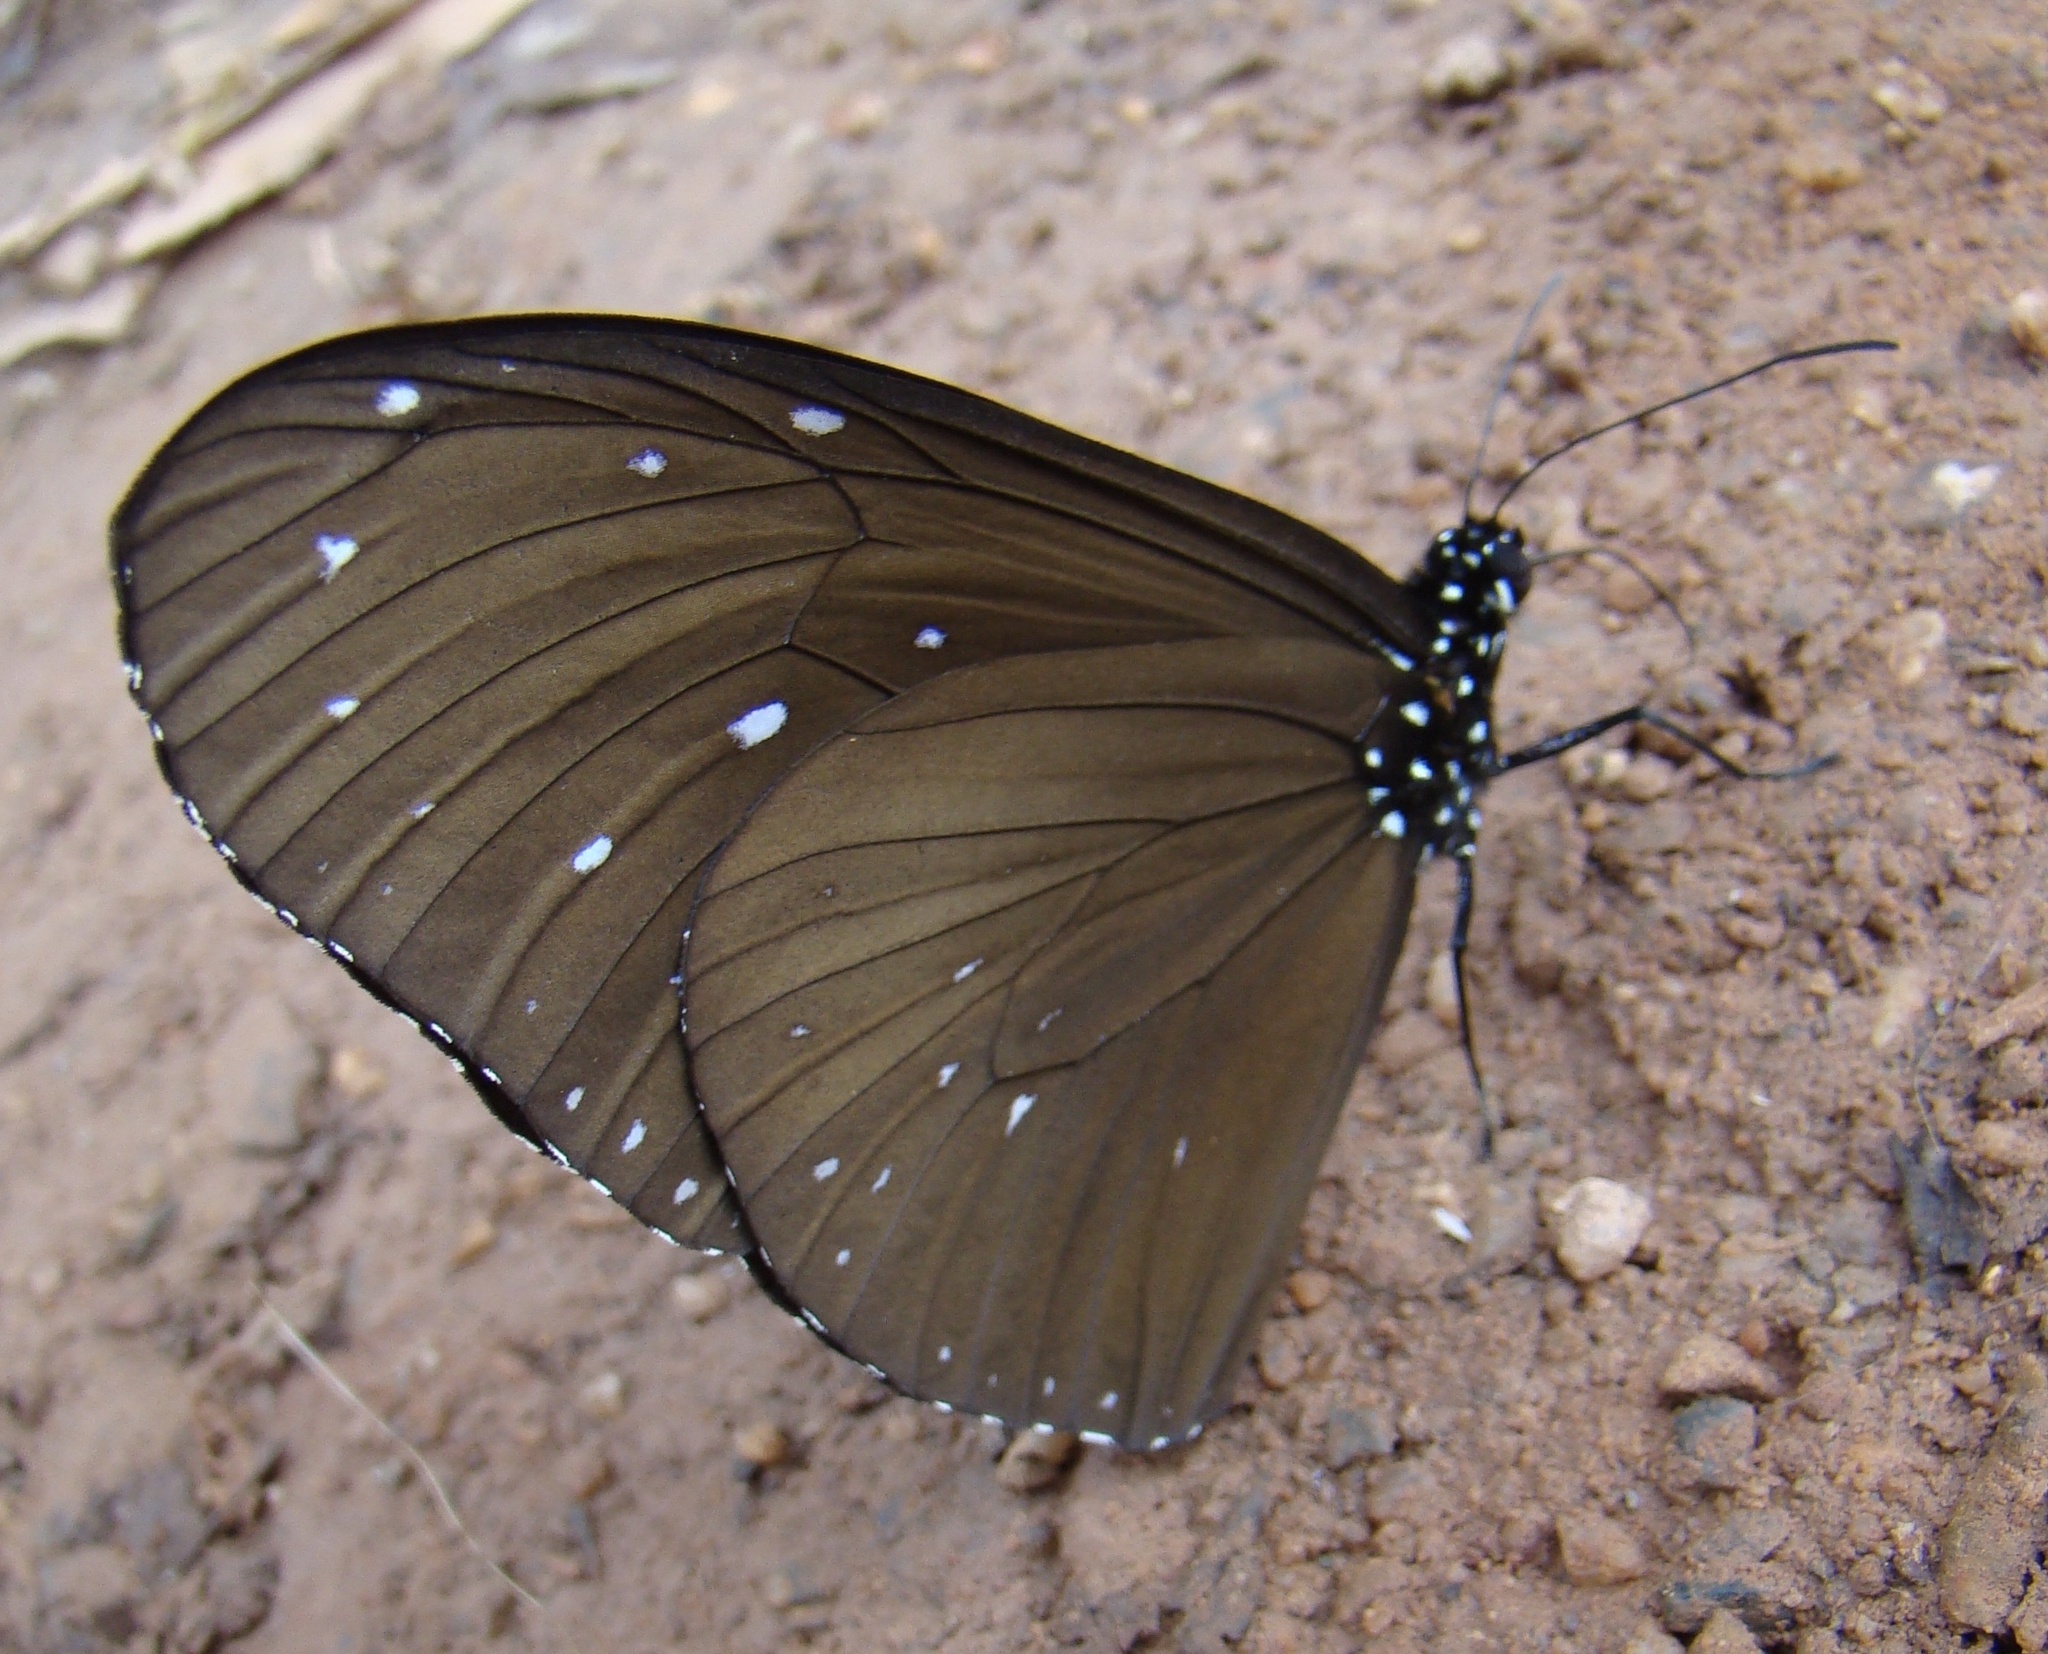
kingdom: Animalia
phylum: Arthropoda
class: Insecta
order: Lepidoptera
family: Nymphalidae
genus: Euploea
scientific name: Euploea mulciber
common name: Striped blue crow butterfly
